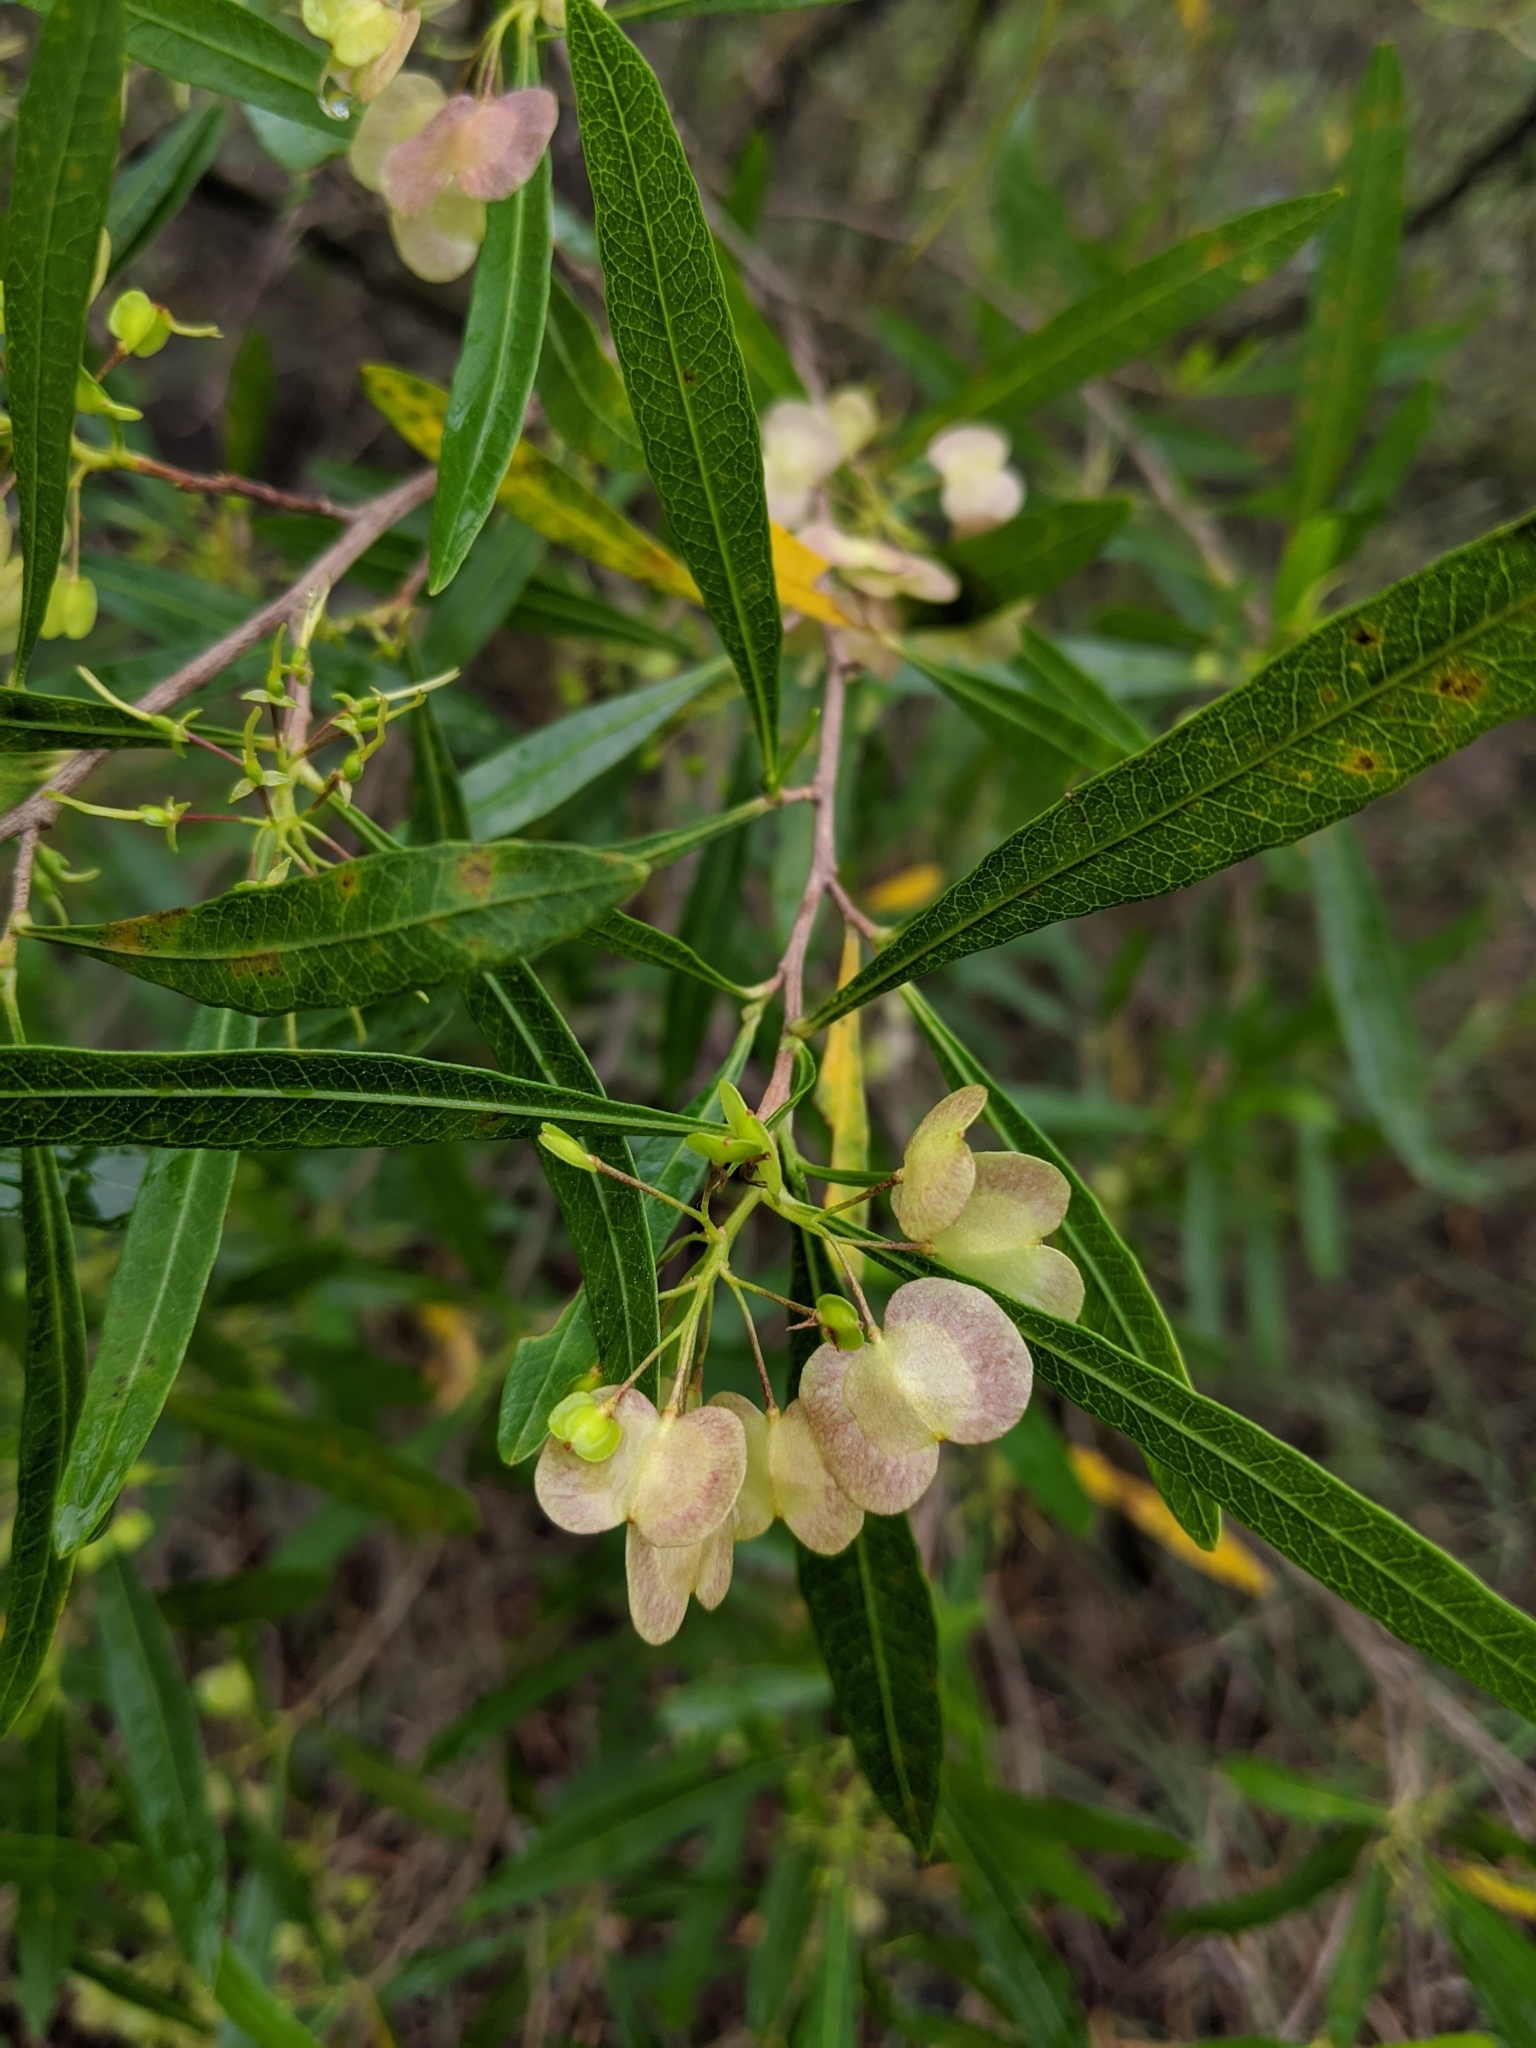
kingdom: Plantae
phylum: Tracheophyta
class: Magnoliopsida
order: Sapindales
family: Sapindaceae
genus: Dodonaea
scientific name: Dodonaea viscosa
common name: Hopbush
